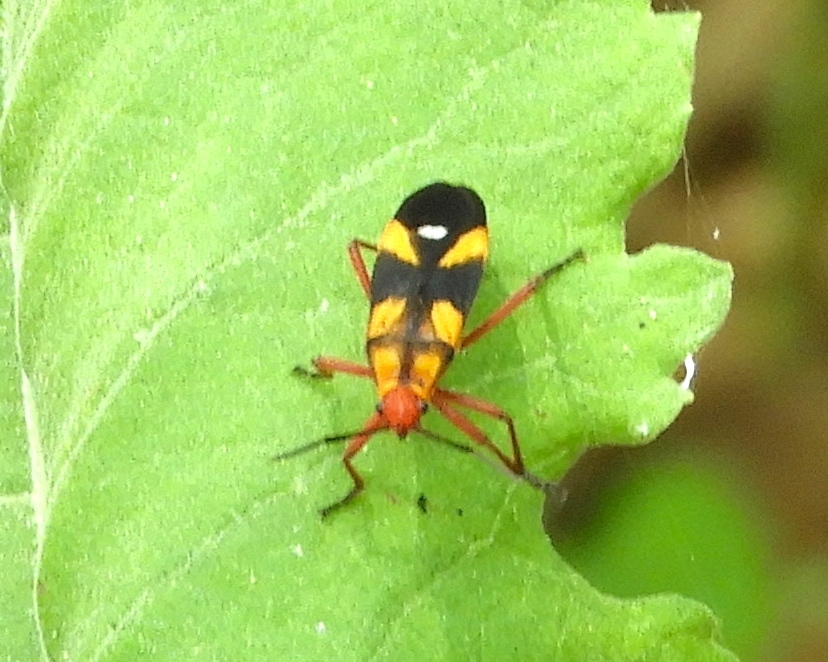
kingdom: Animalia
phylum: Arthropoda
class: Insecta
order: Hemiptera
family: Lygaeidae
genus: Oncopeltus
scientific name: Oncopeltus guttaloides
